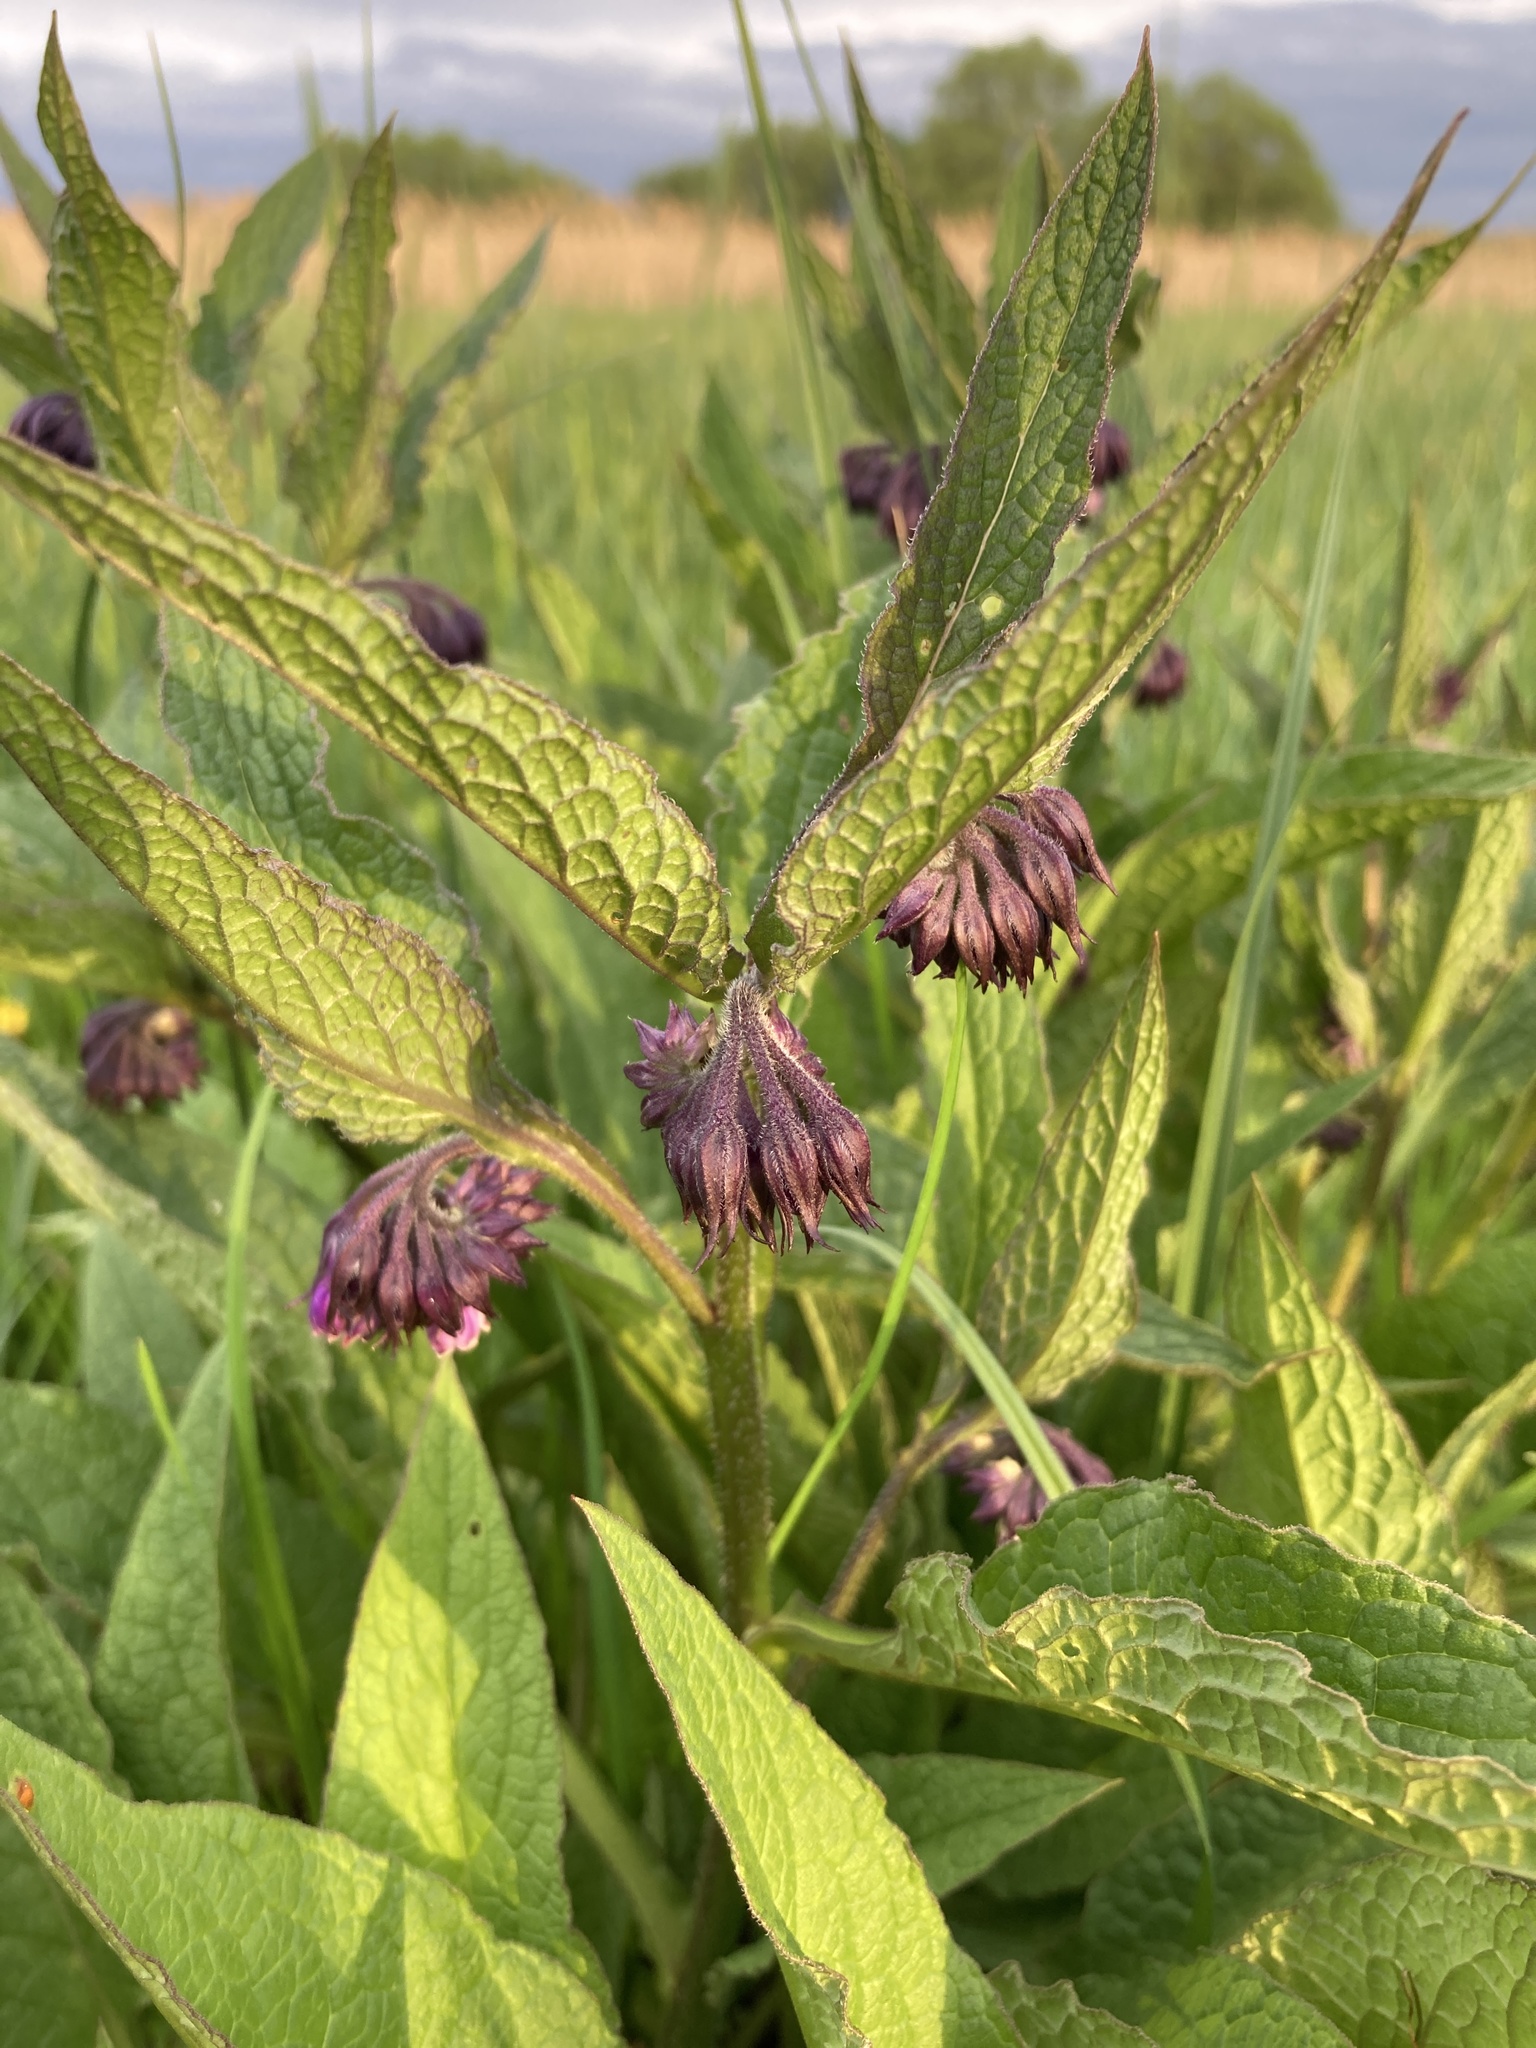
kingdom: Plantae
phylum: Tracheophyta
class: Magnoliopsida
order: Boraginales
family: Boraginaceae
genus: Symphytum
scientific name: Symphytum officinale
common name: Common comfrey
